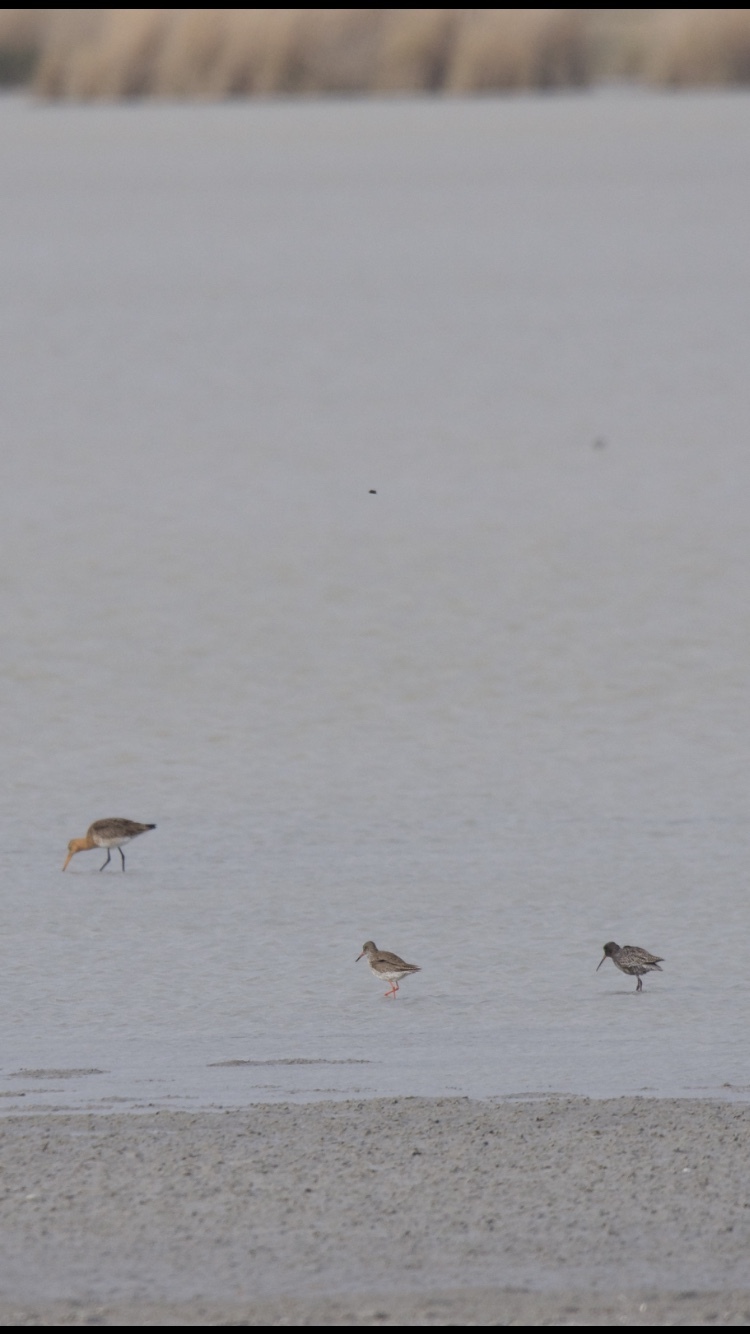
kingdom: Animalia
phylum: Chordata
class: Aves
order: Charadriiformes
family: Scolopacidae
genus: Limosa
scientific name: Limosa limosa
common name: Black-tailed godwit
